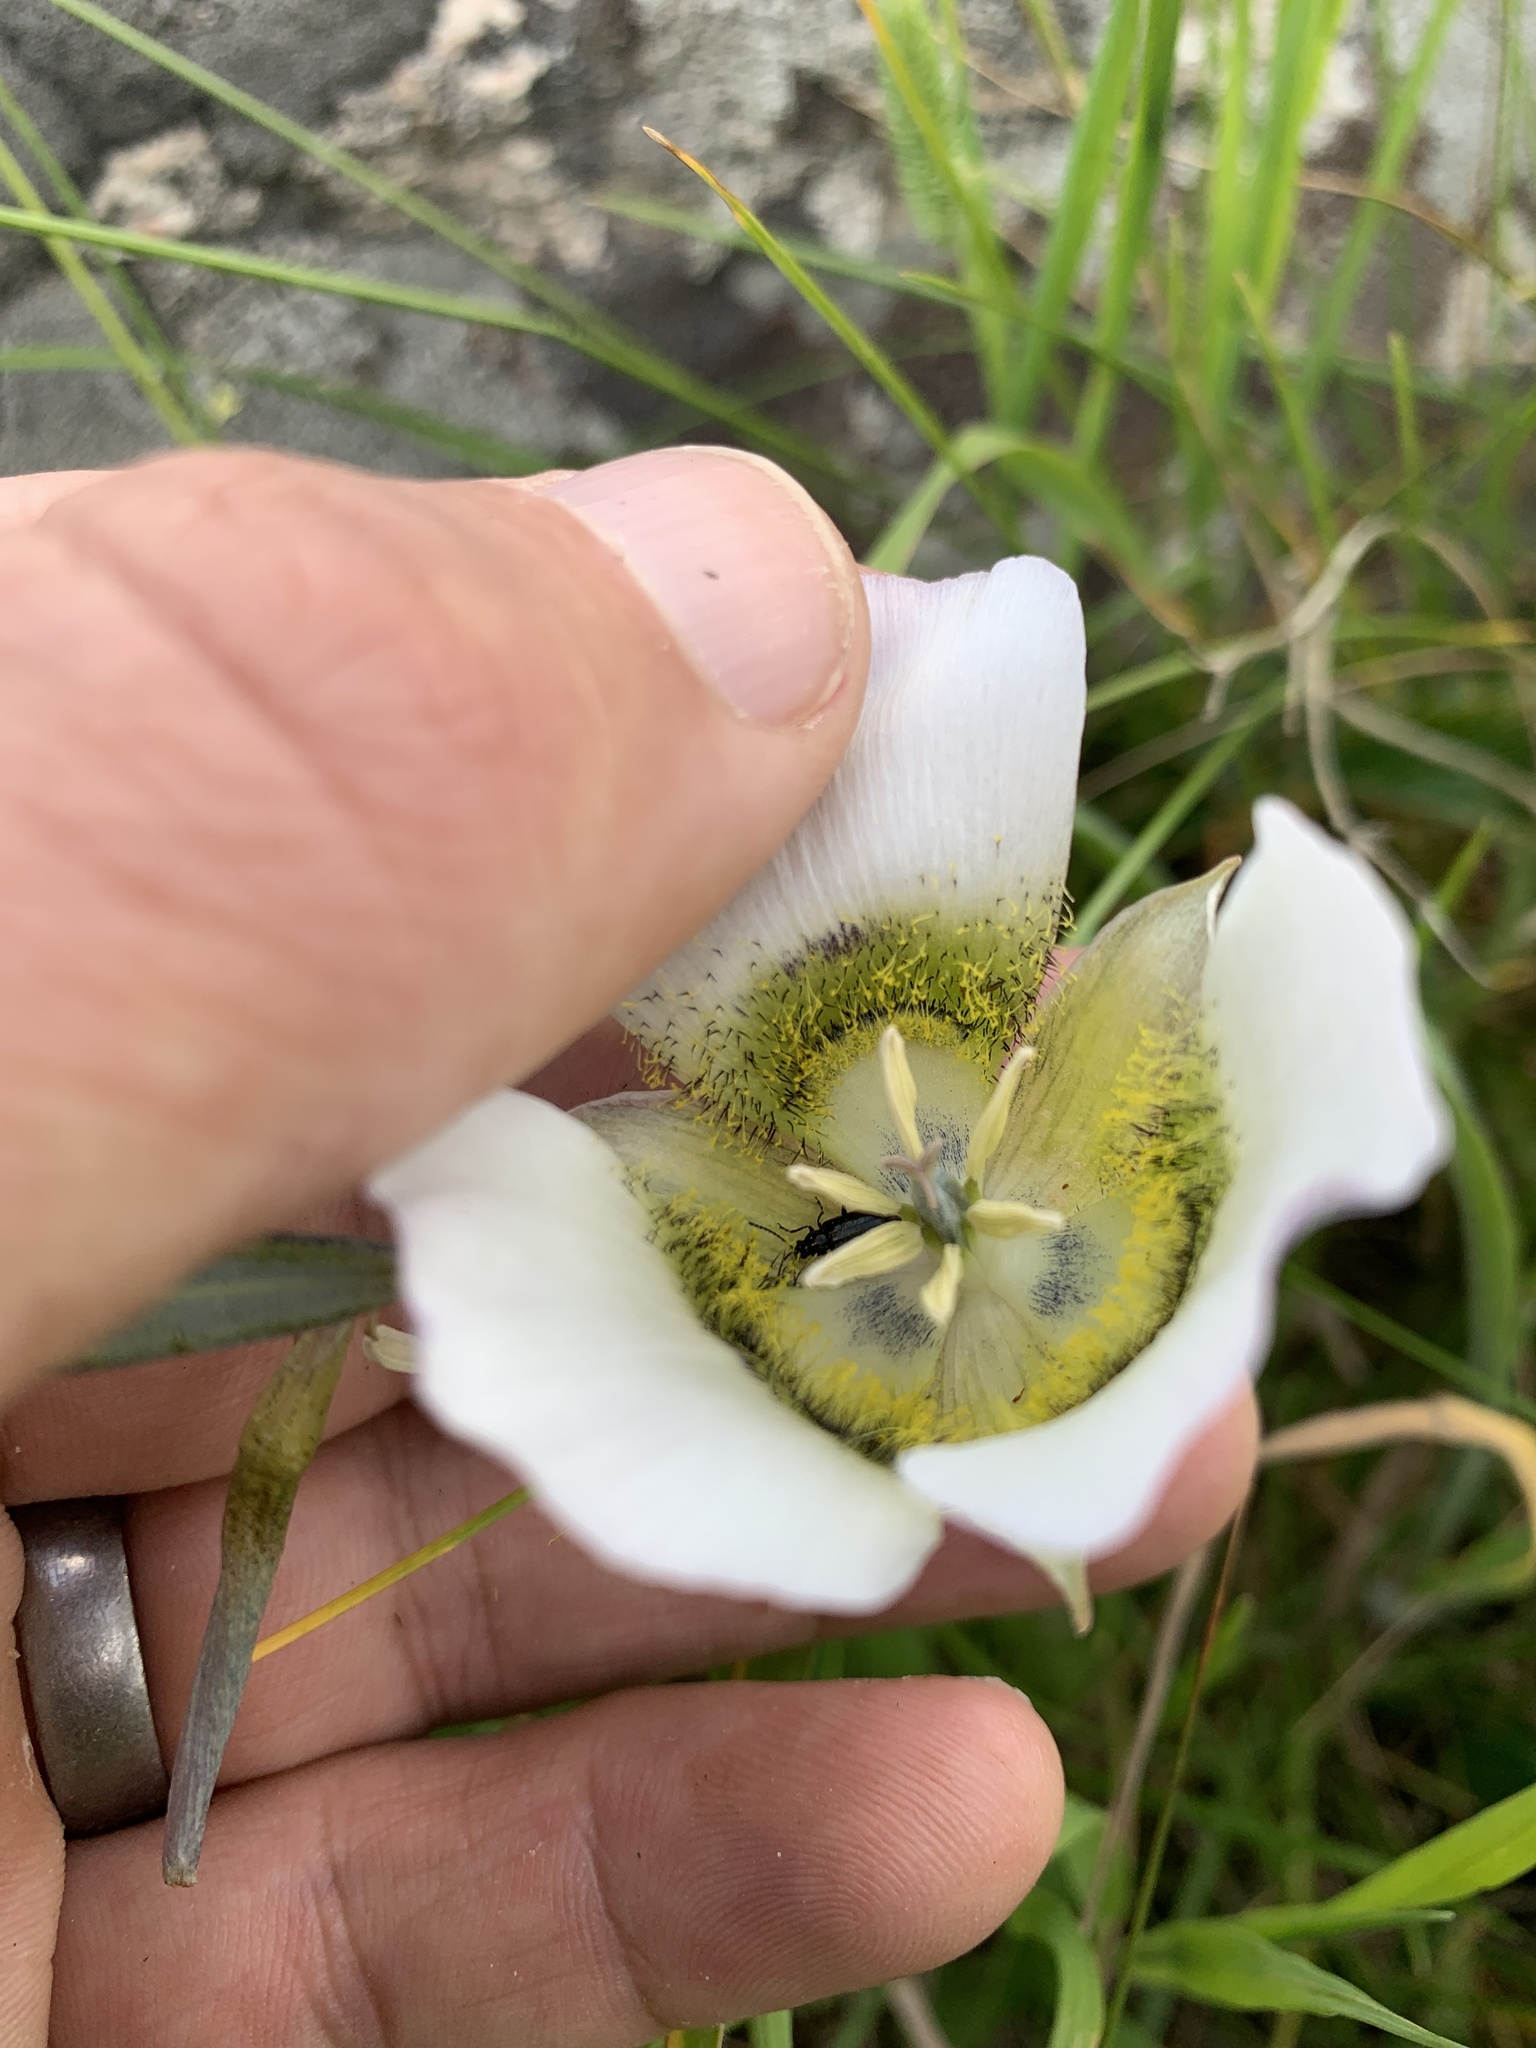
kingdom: Plantae
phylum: Tracheophyta
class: Liliopsida
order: Liliales
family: Liliaceae
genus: Calochortus
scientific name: Calochortus gunnisonii
